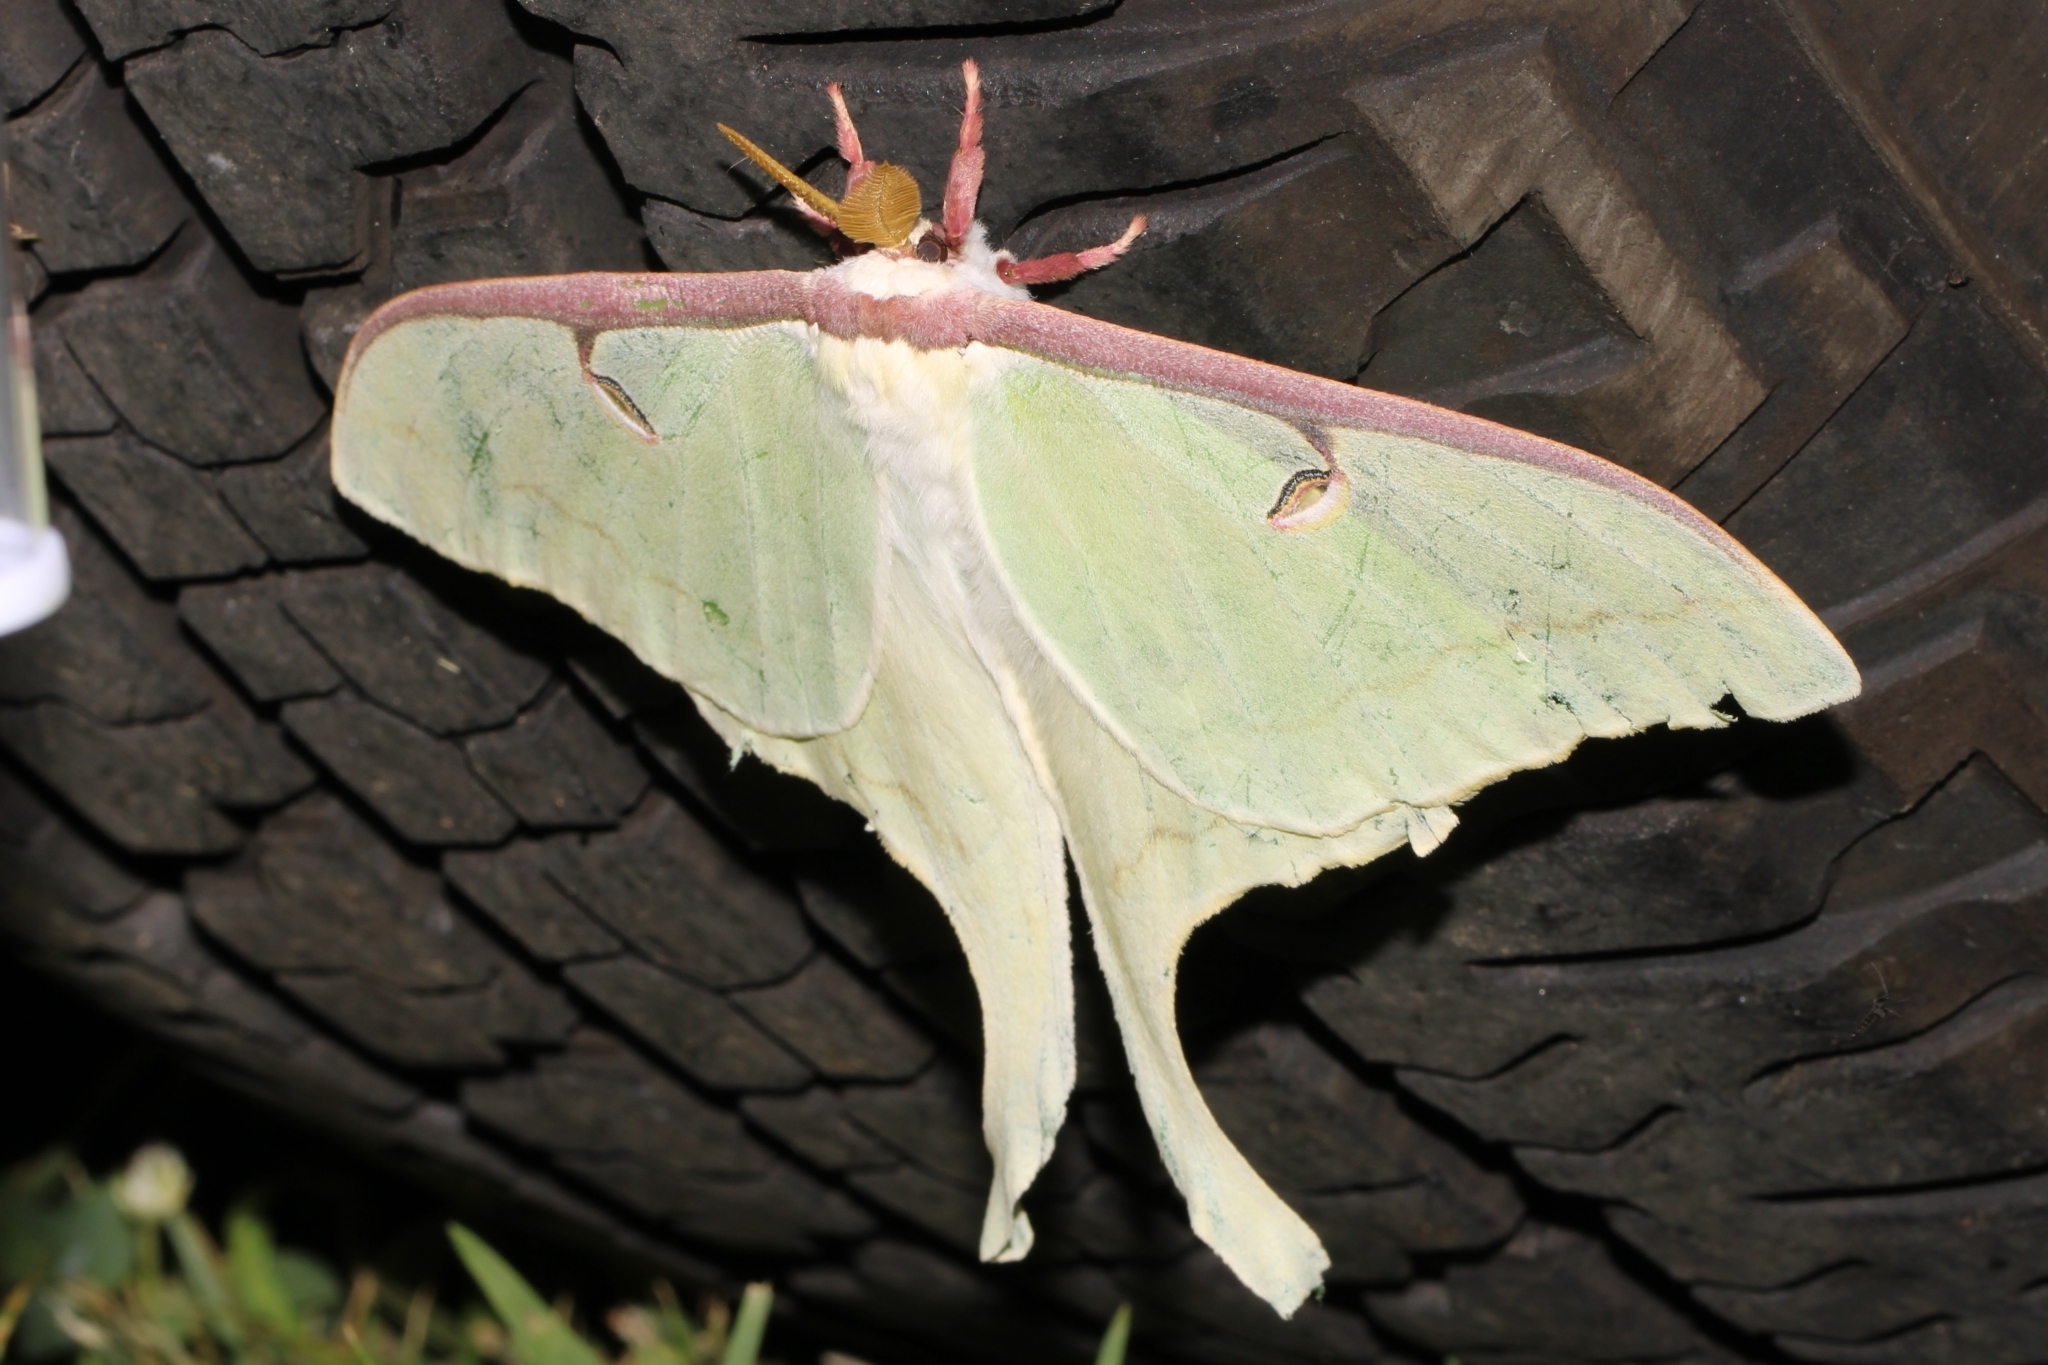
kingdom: Animalia
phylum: Arthropoda
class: Insecta
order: Lepidoptera
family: Saturniidae
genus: Actias
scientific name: Actias luna
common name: Luna moth
